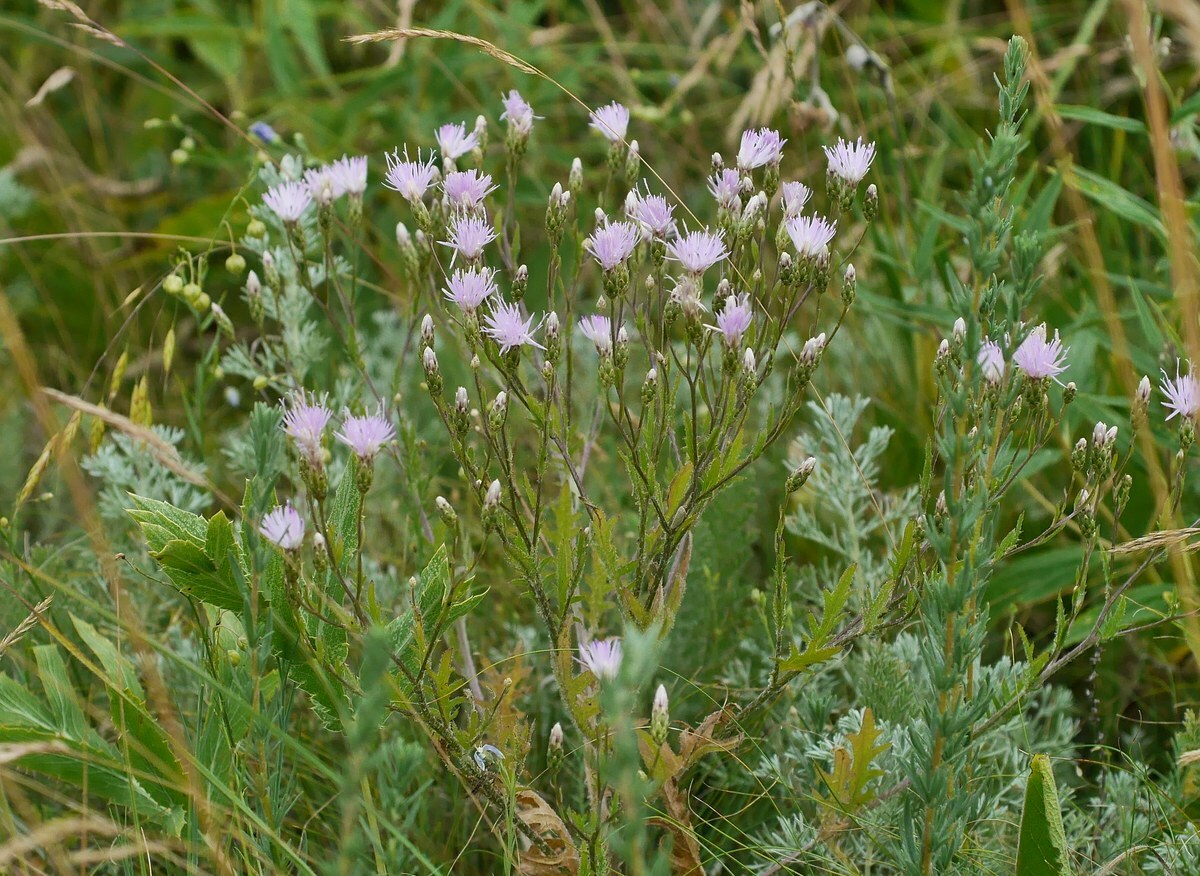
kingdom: Plantae
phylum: Tracheophyta
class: Magnoliopsida
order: Asterales
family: Asteraceae
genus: Klasea
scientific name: Klasea erucifolia
